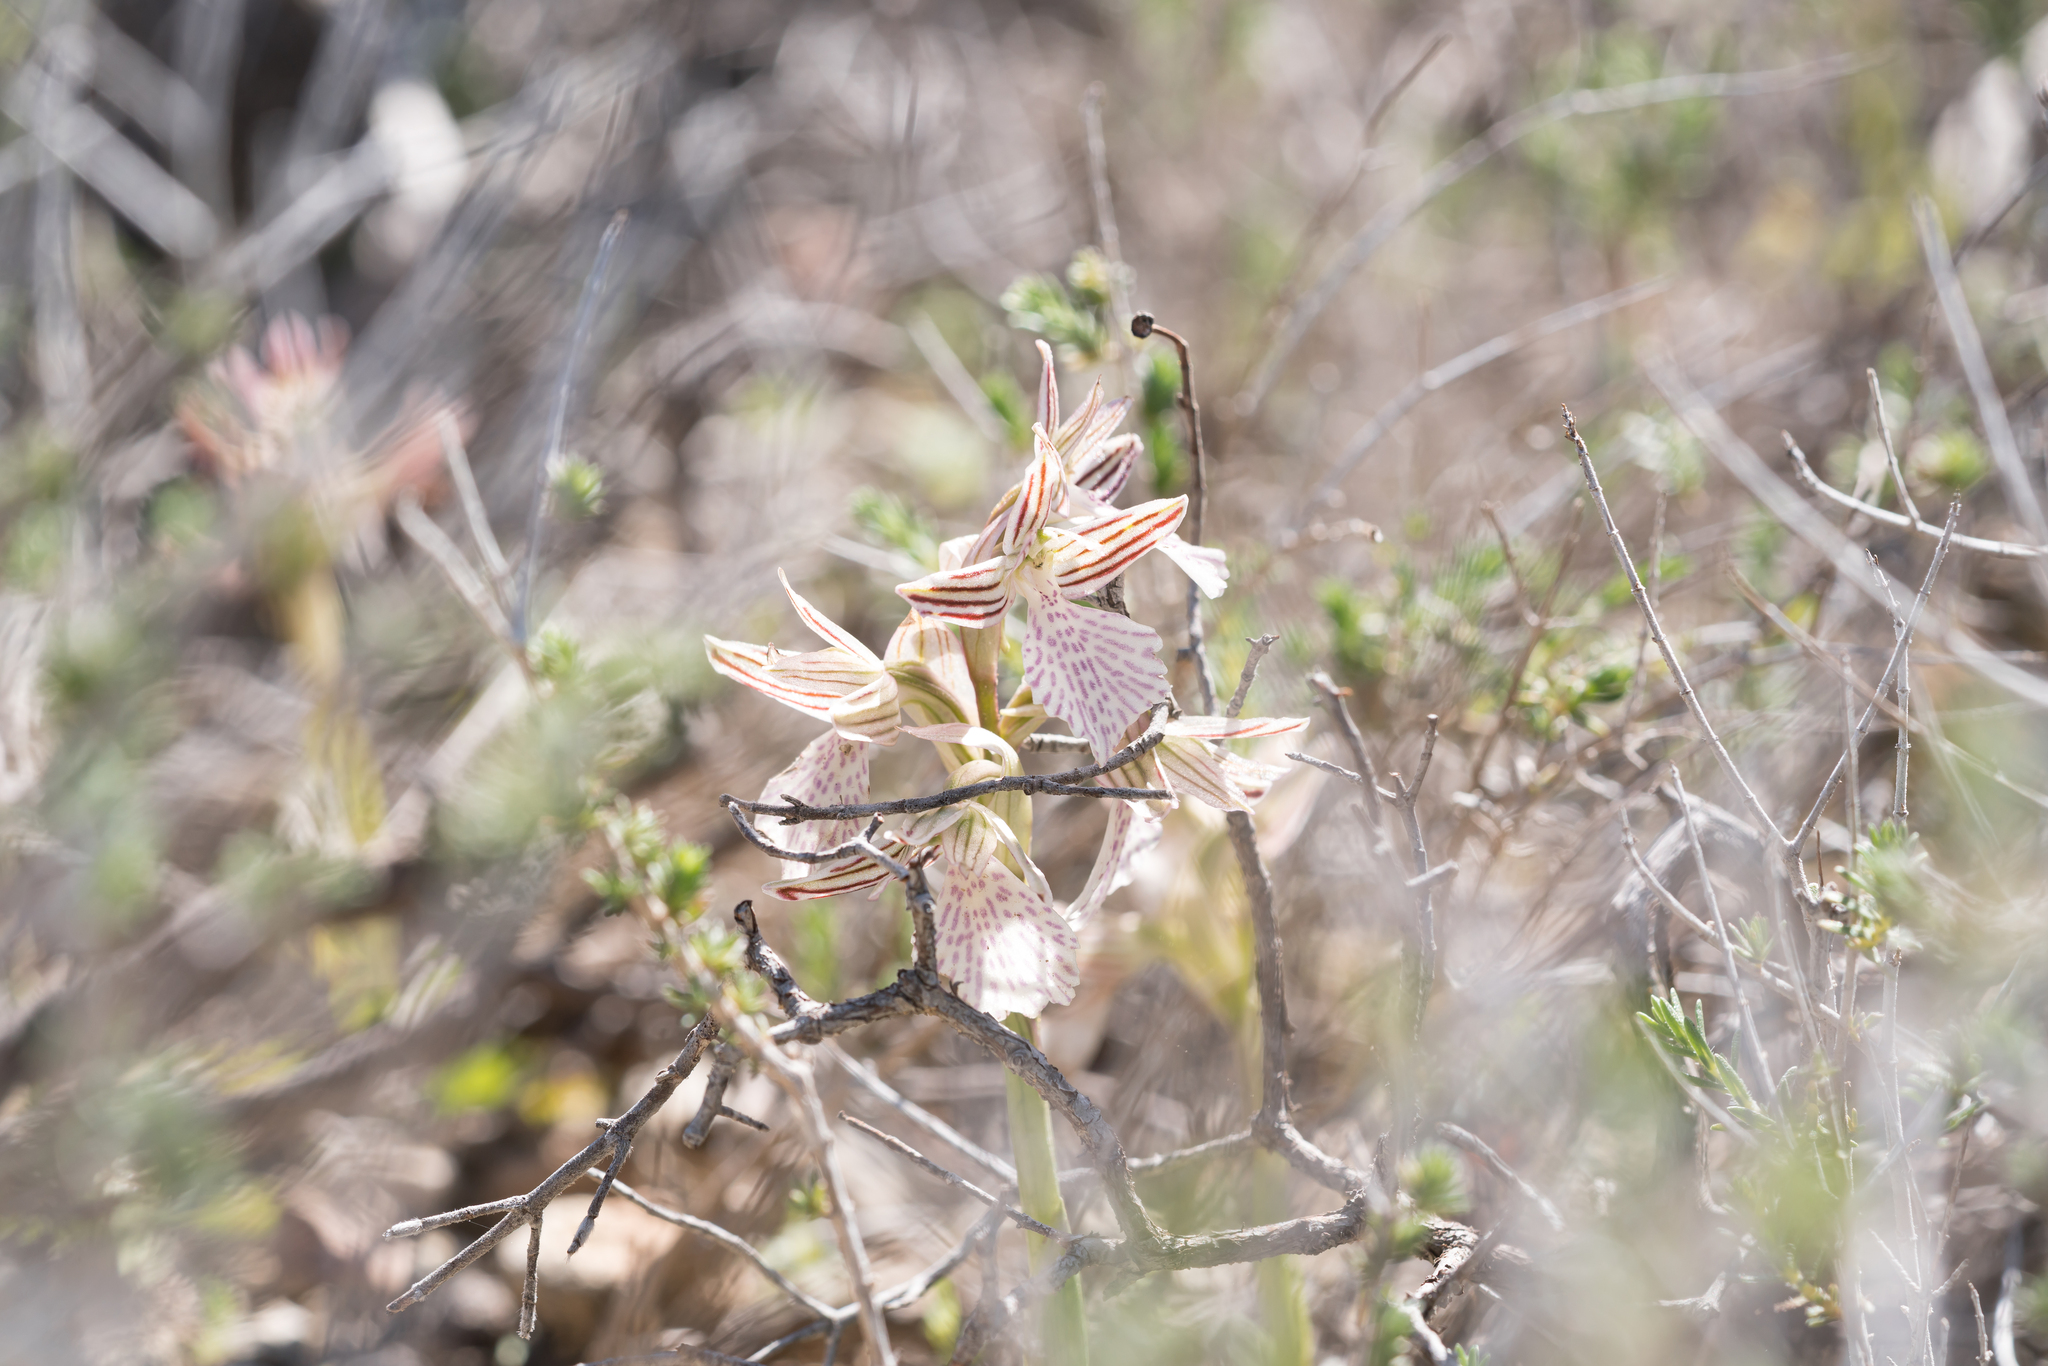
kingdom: Plantae
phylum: Tracheophyta
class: Liliopsida
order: Asparagales
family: Orchidaceae
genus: Anacamptis
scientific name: Anacamptis papilionacea
